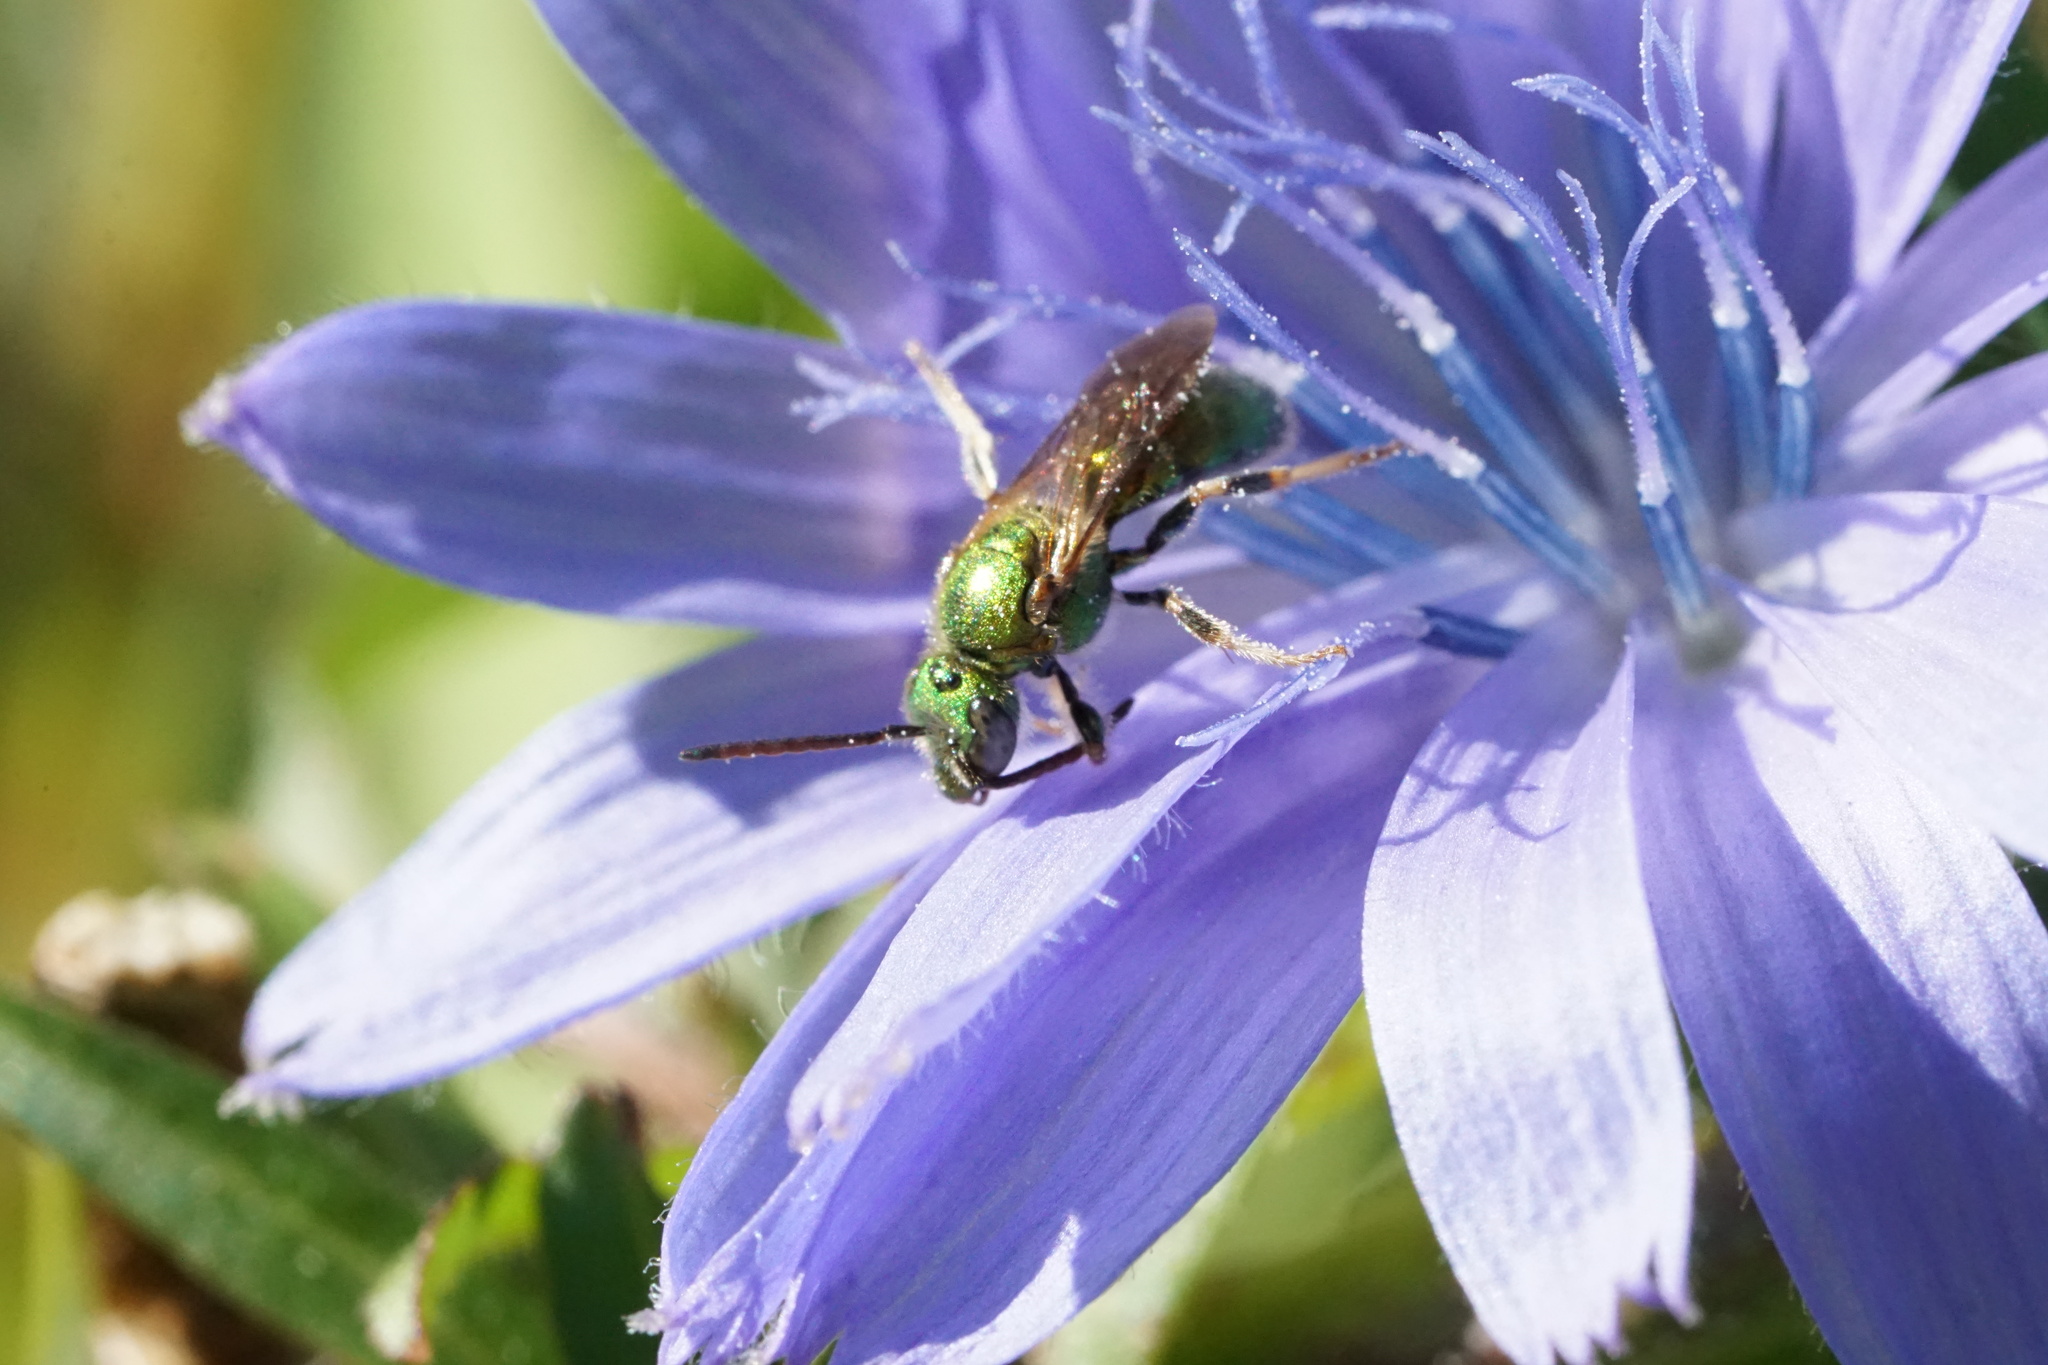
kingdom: Animalia
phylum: Arthropoda
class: Insecta
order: Hymenoptera
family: Halictidae
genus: Augochlora
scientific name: Augochlora pura
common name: Pure green sweat bee
